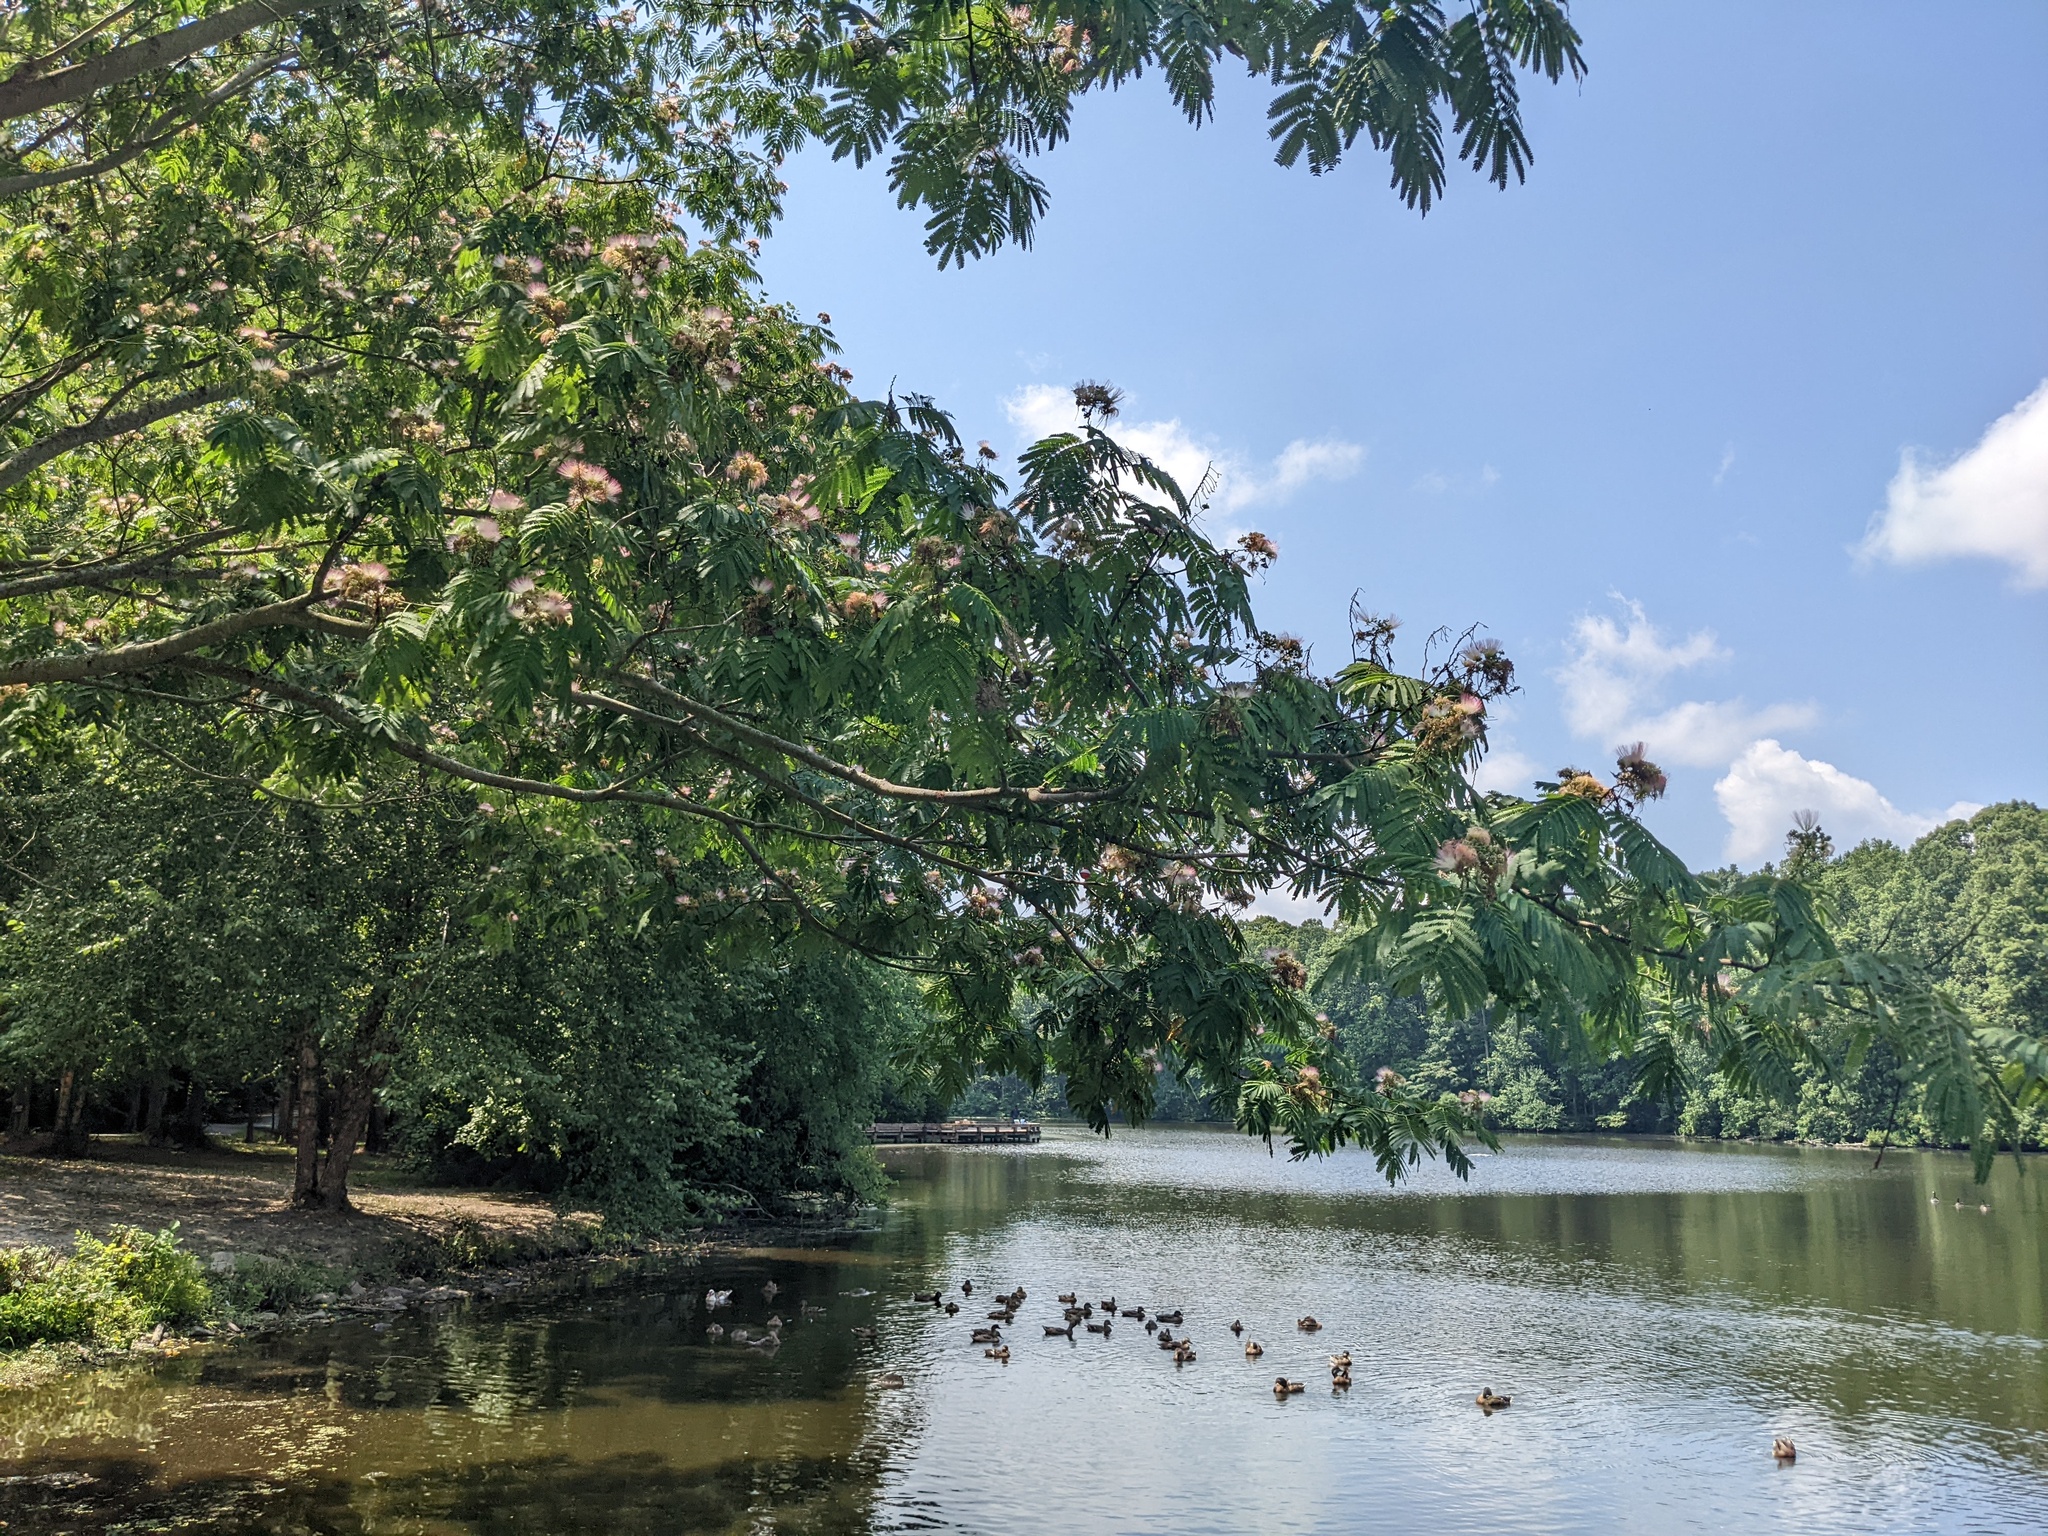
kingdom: Plantae
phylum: Tracheophyta
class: Magnoliopsida
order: Fabales
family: Fabaceae
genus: Albizia
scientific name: Albizia julibrissin
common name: Silktree
